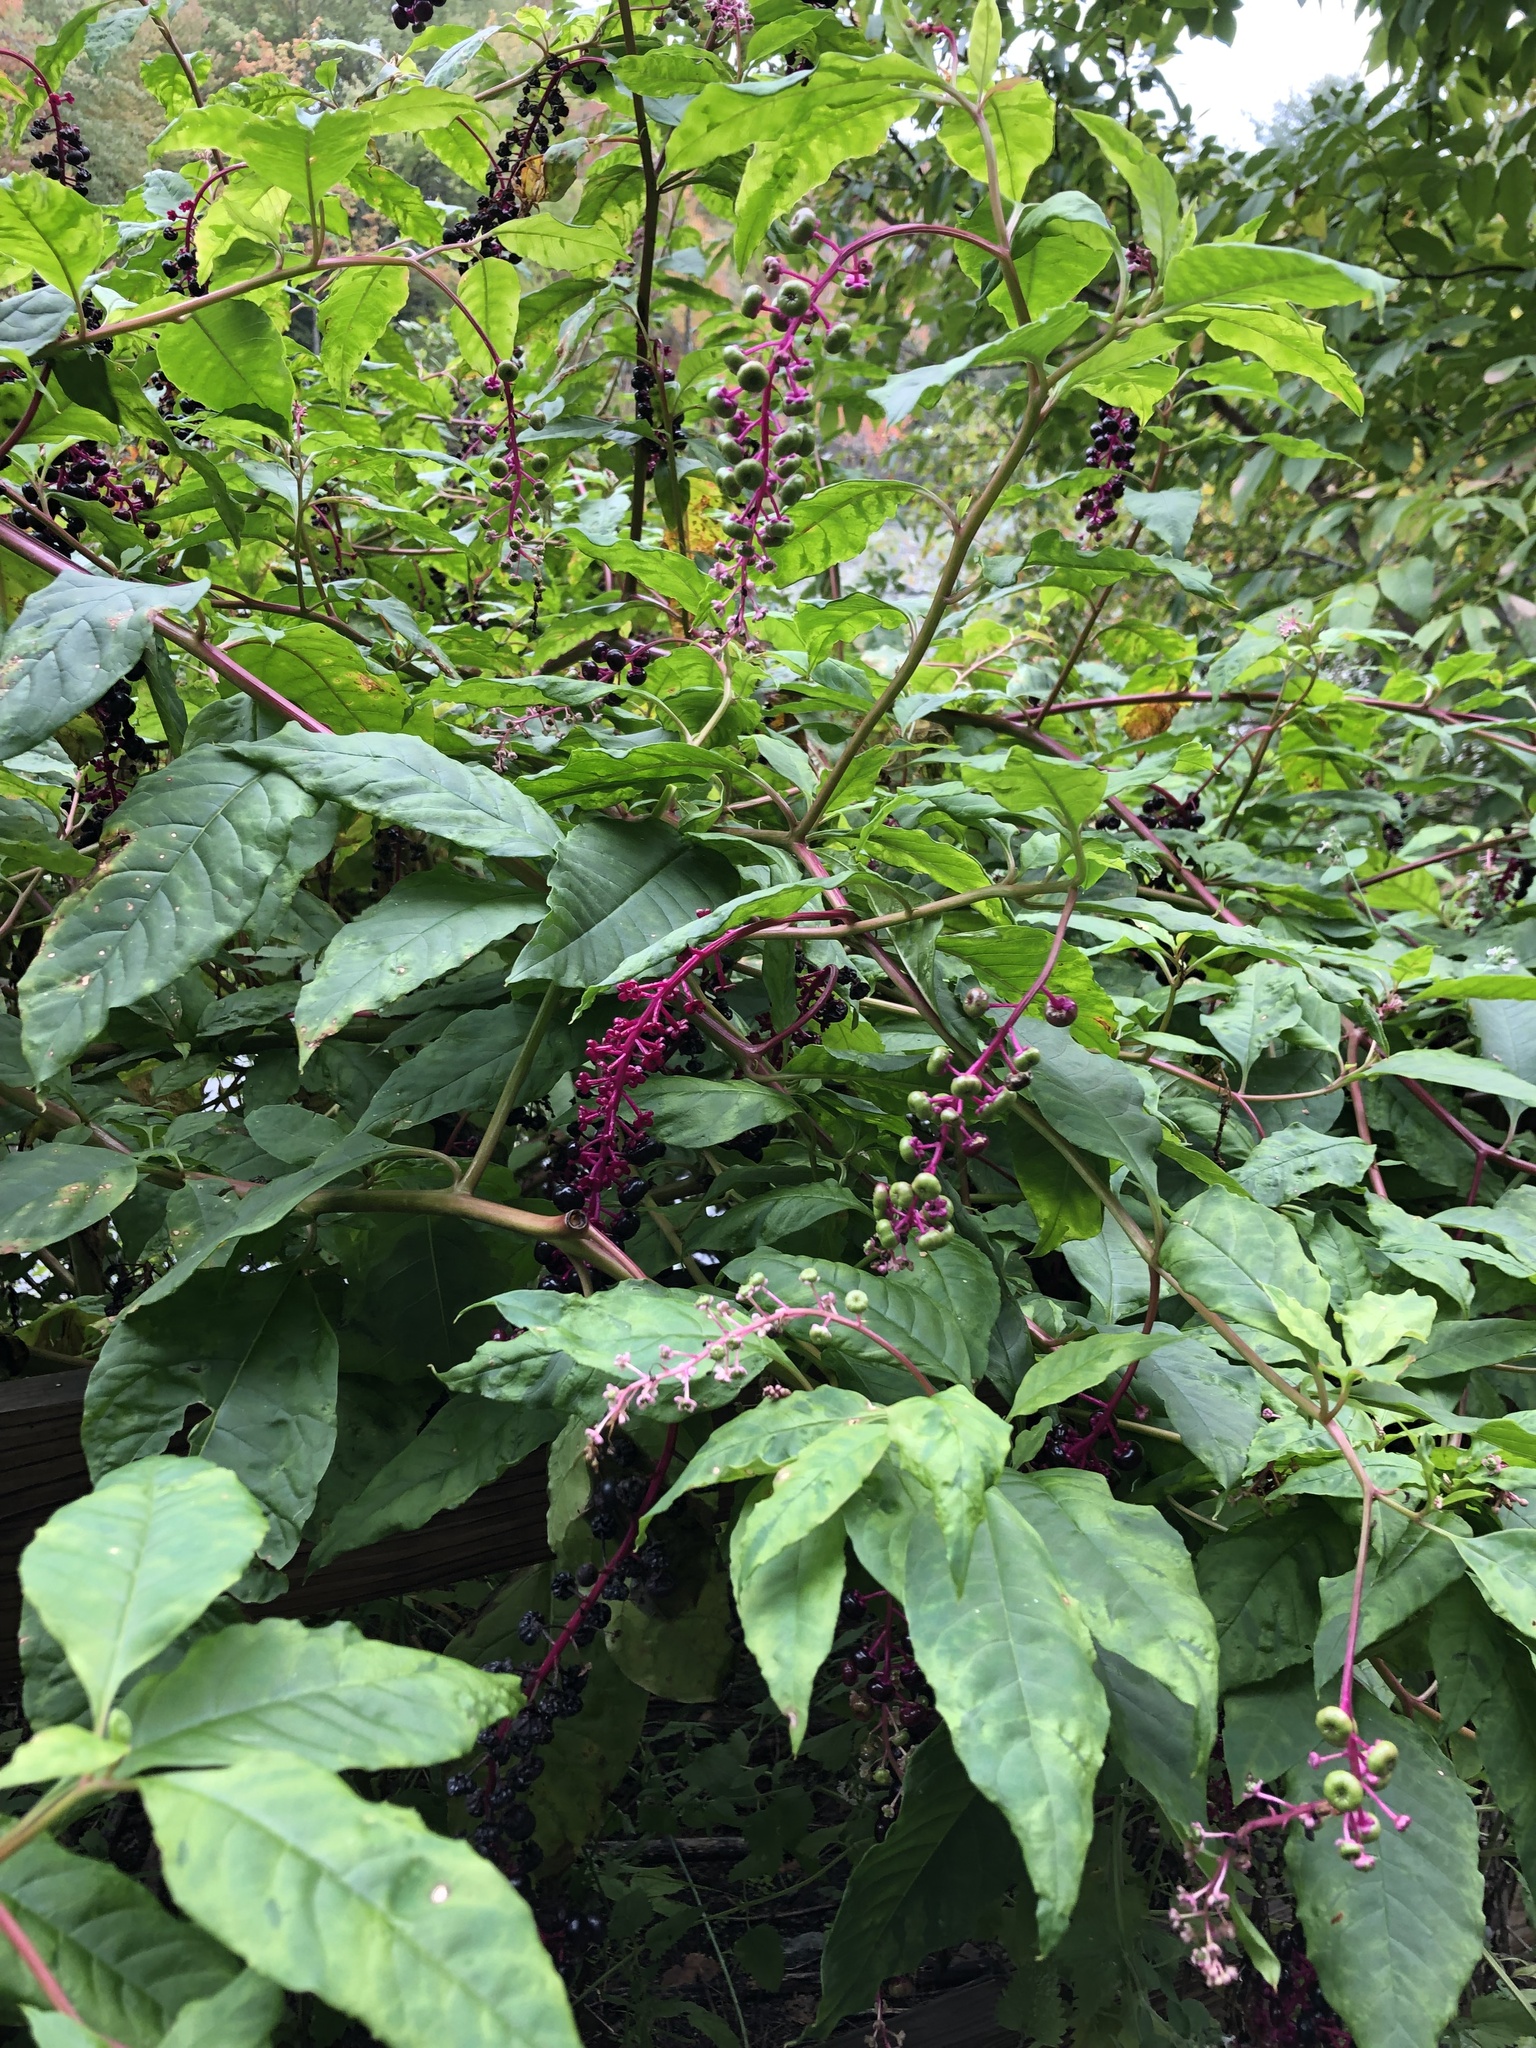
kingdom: Plantae
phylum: Tracheophyta
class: Magnoliopsida
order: Caryophyllales
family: Phytolaccaceae
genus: Phytolacca
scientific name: Phytolacca americana
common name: American pokeweed
